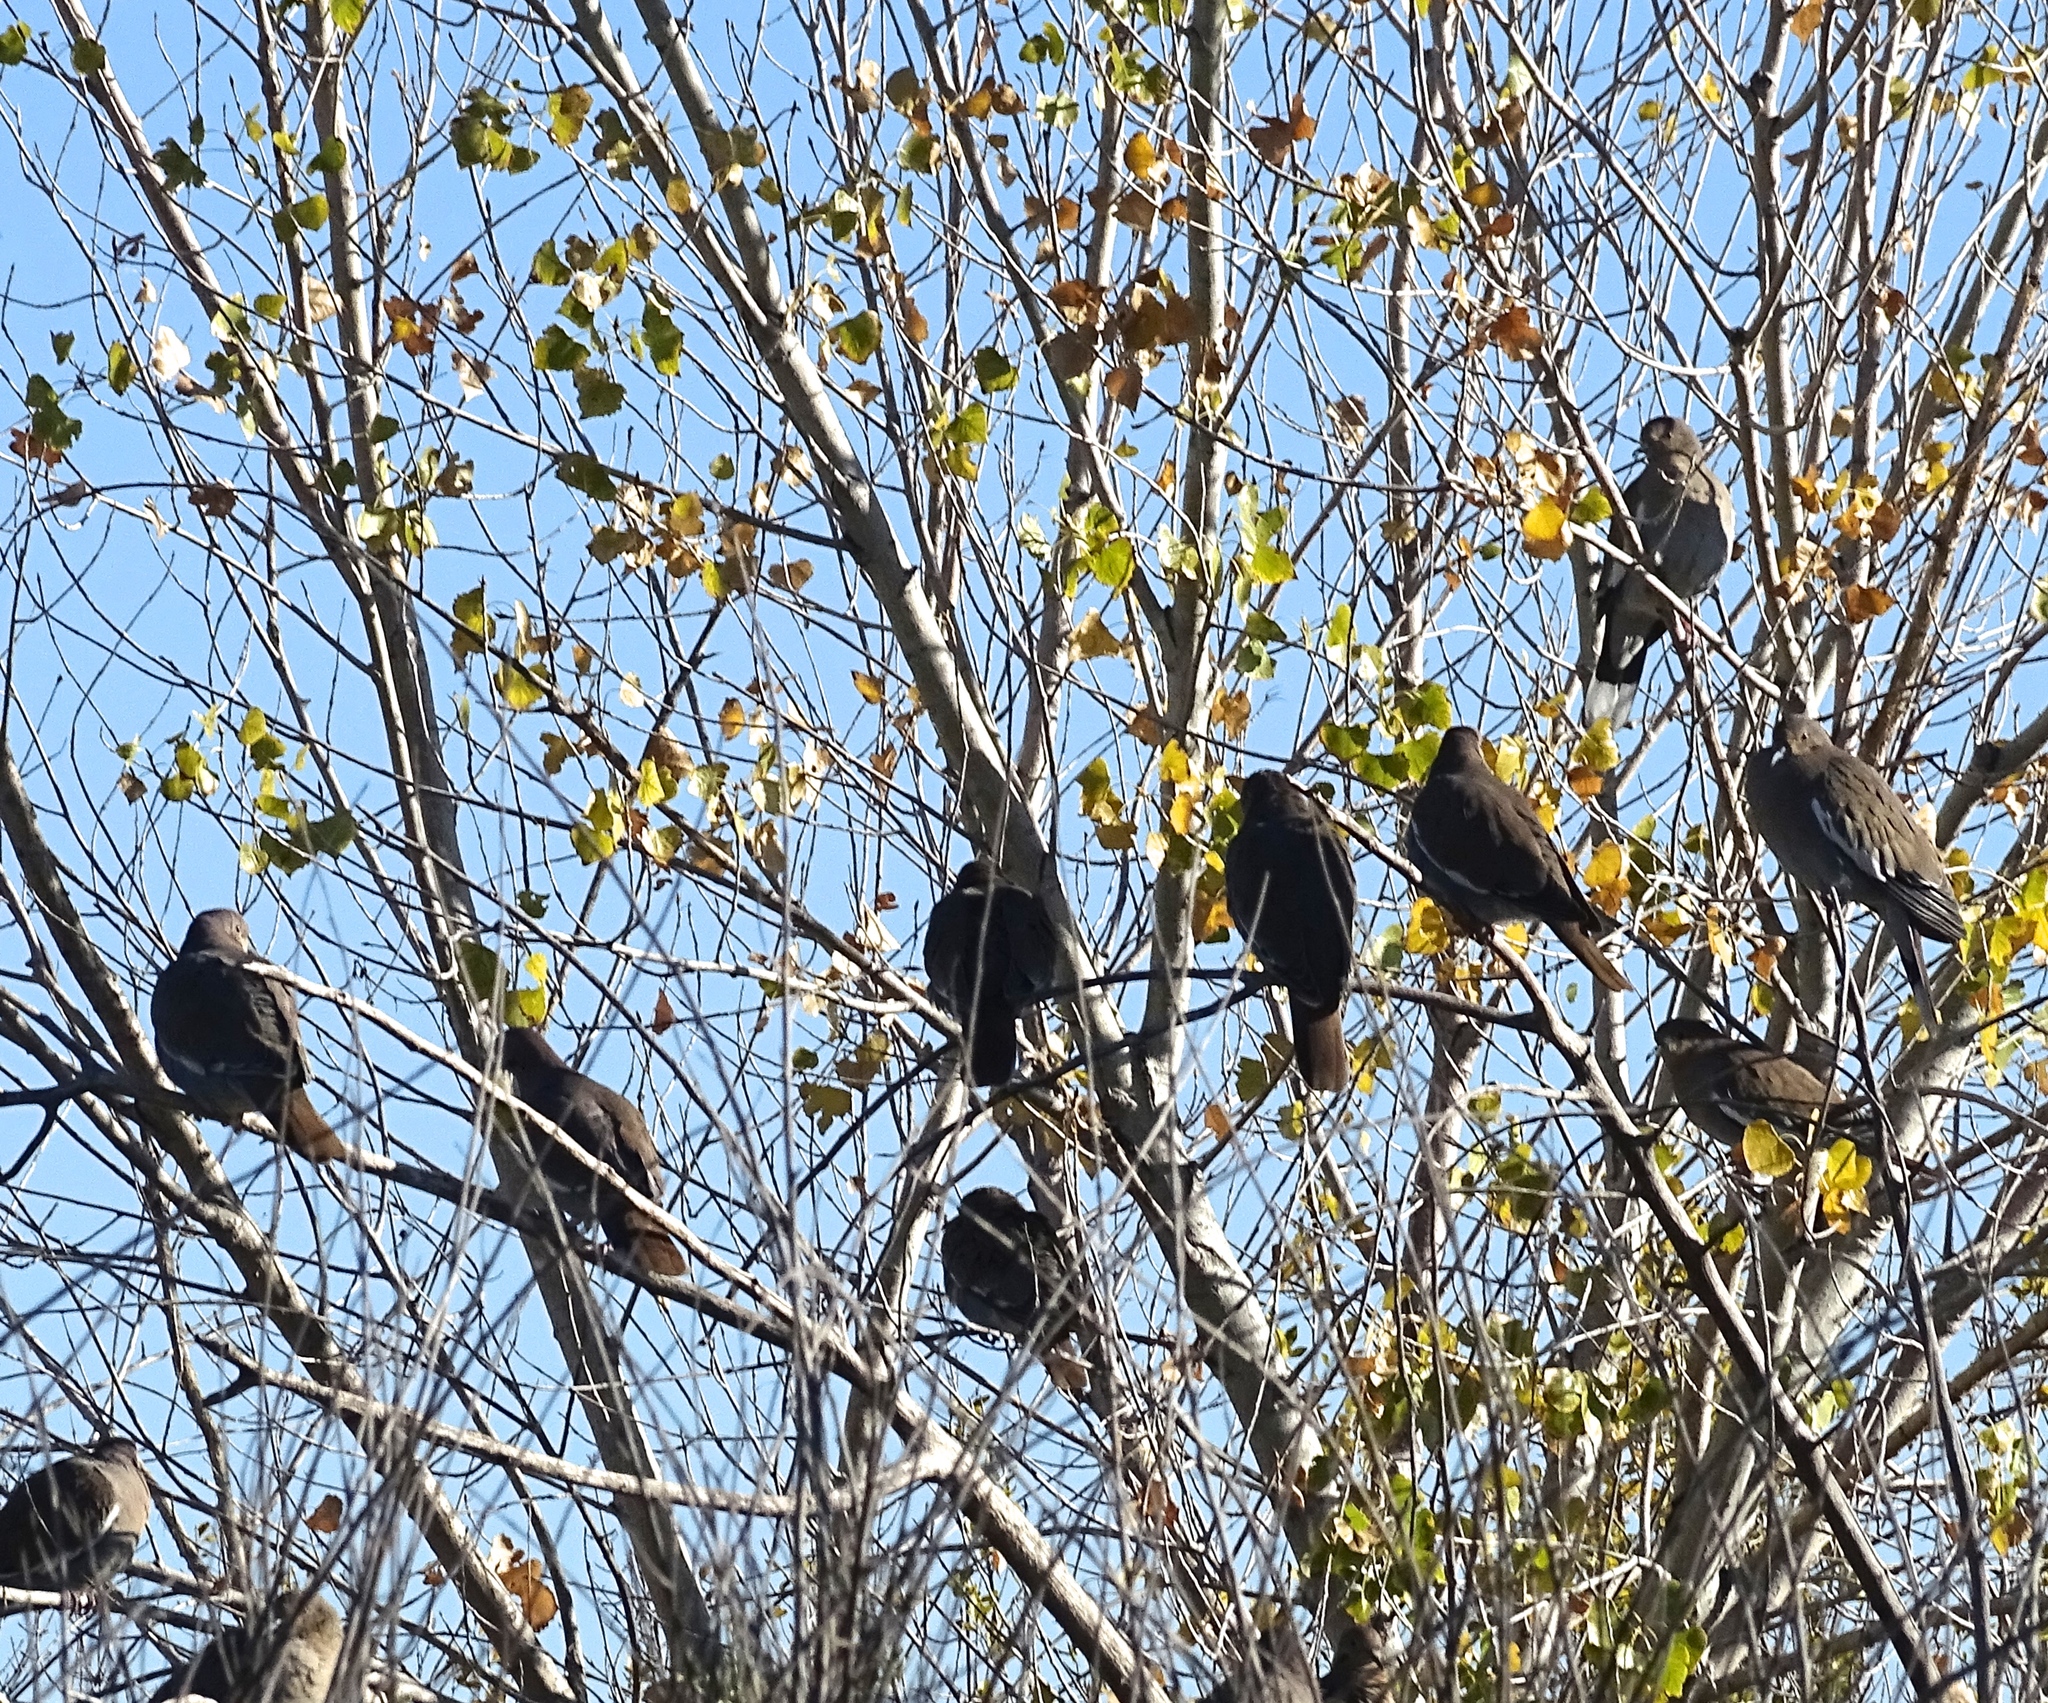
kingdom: Animalia
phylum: Chordata
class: Aves
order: Columbiformes
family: Columbidae
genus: Zenaida
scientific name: Zenaida asiatica
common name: White-winged dove
